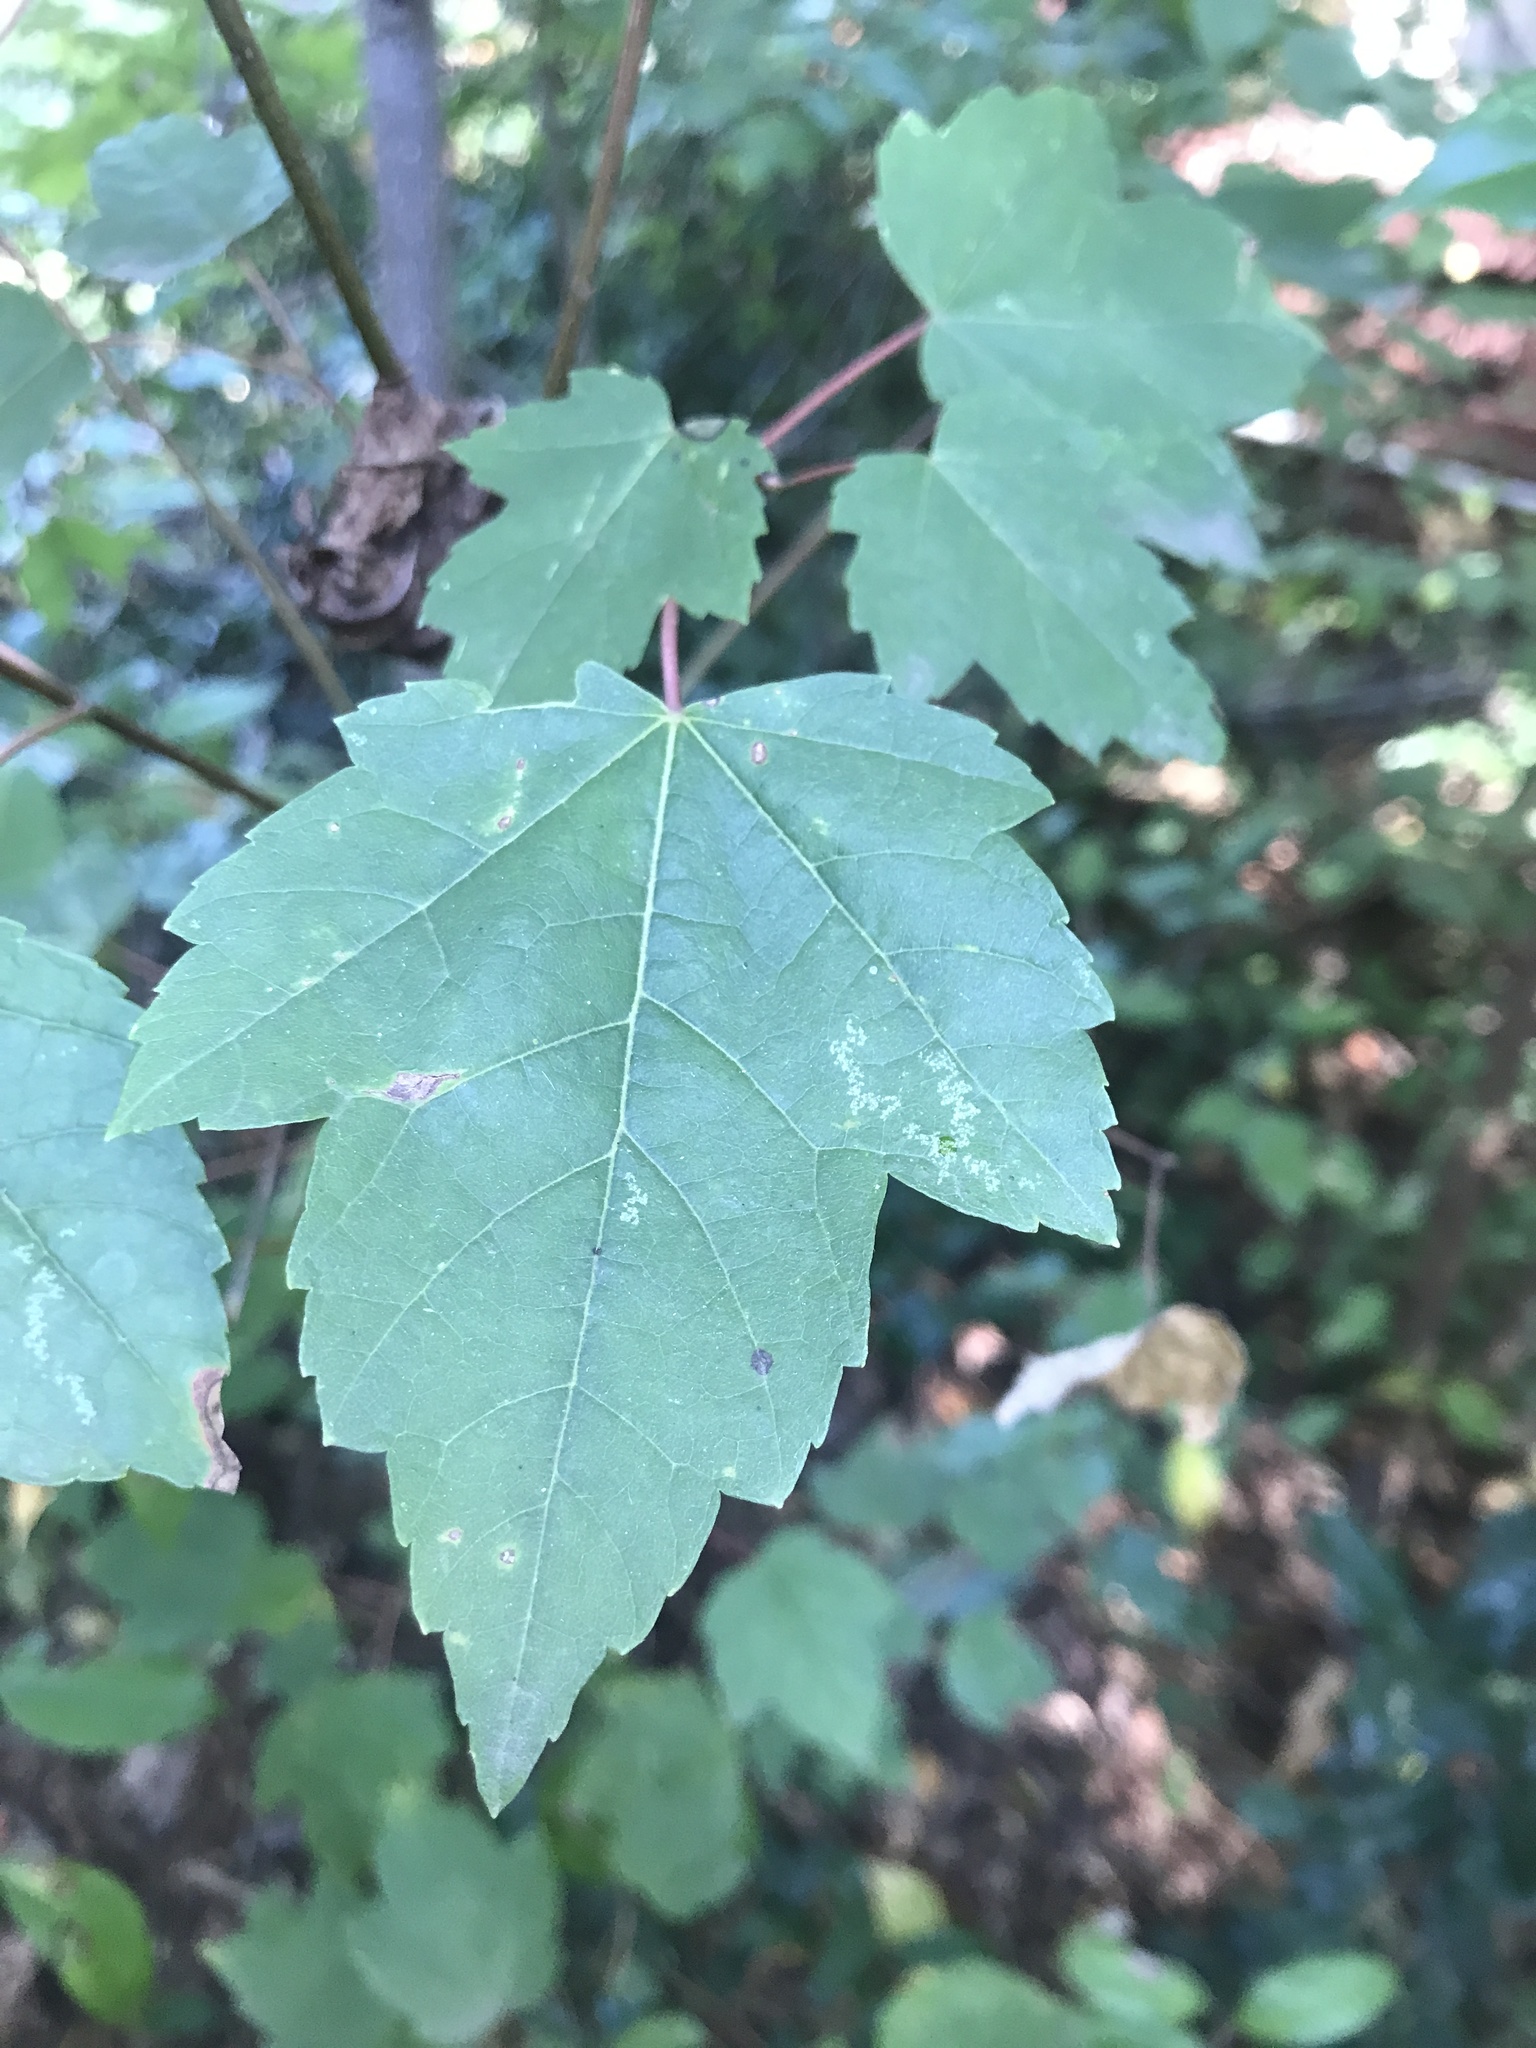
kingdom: Plantae
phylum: Tracheophyta
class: Magnoliopsida
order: Sapindales
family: Sapindaceae
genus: Acer
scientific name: Acer rubrum
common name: Red maple
